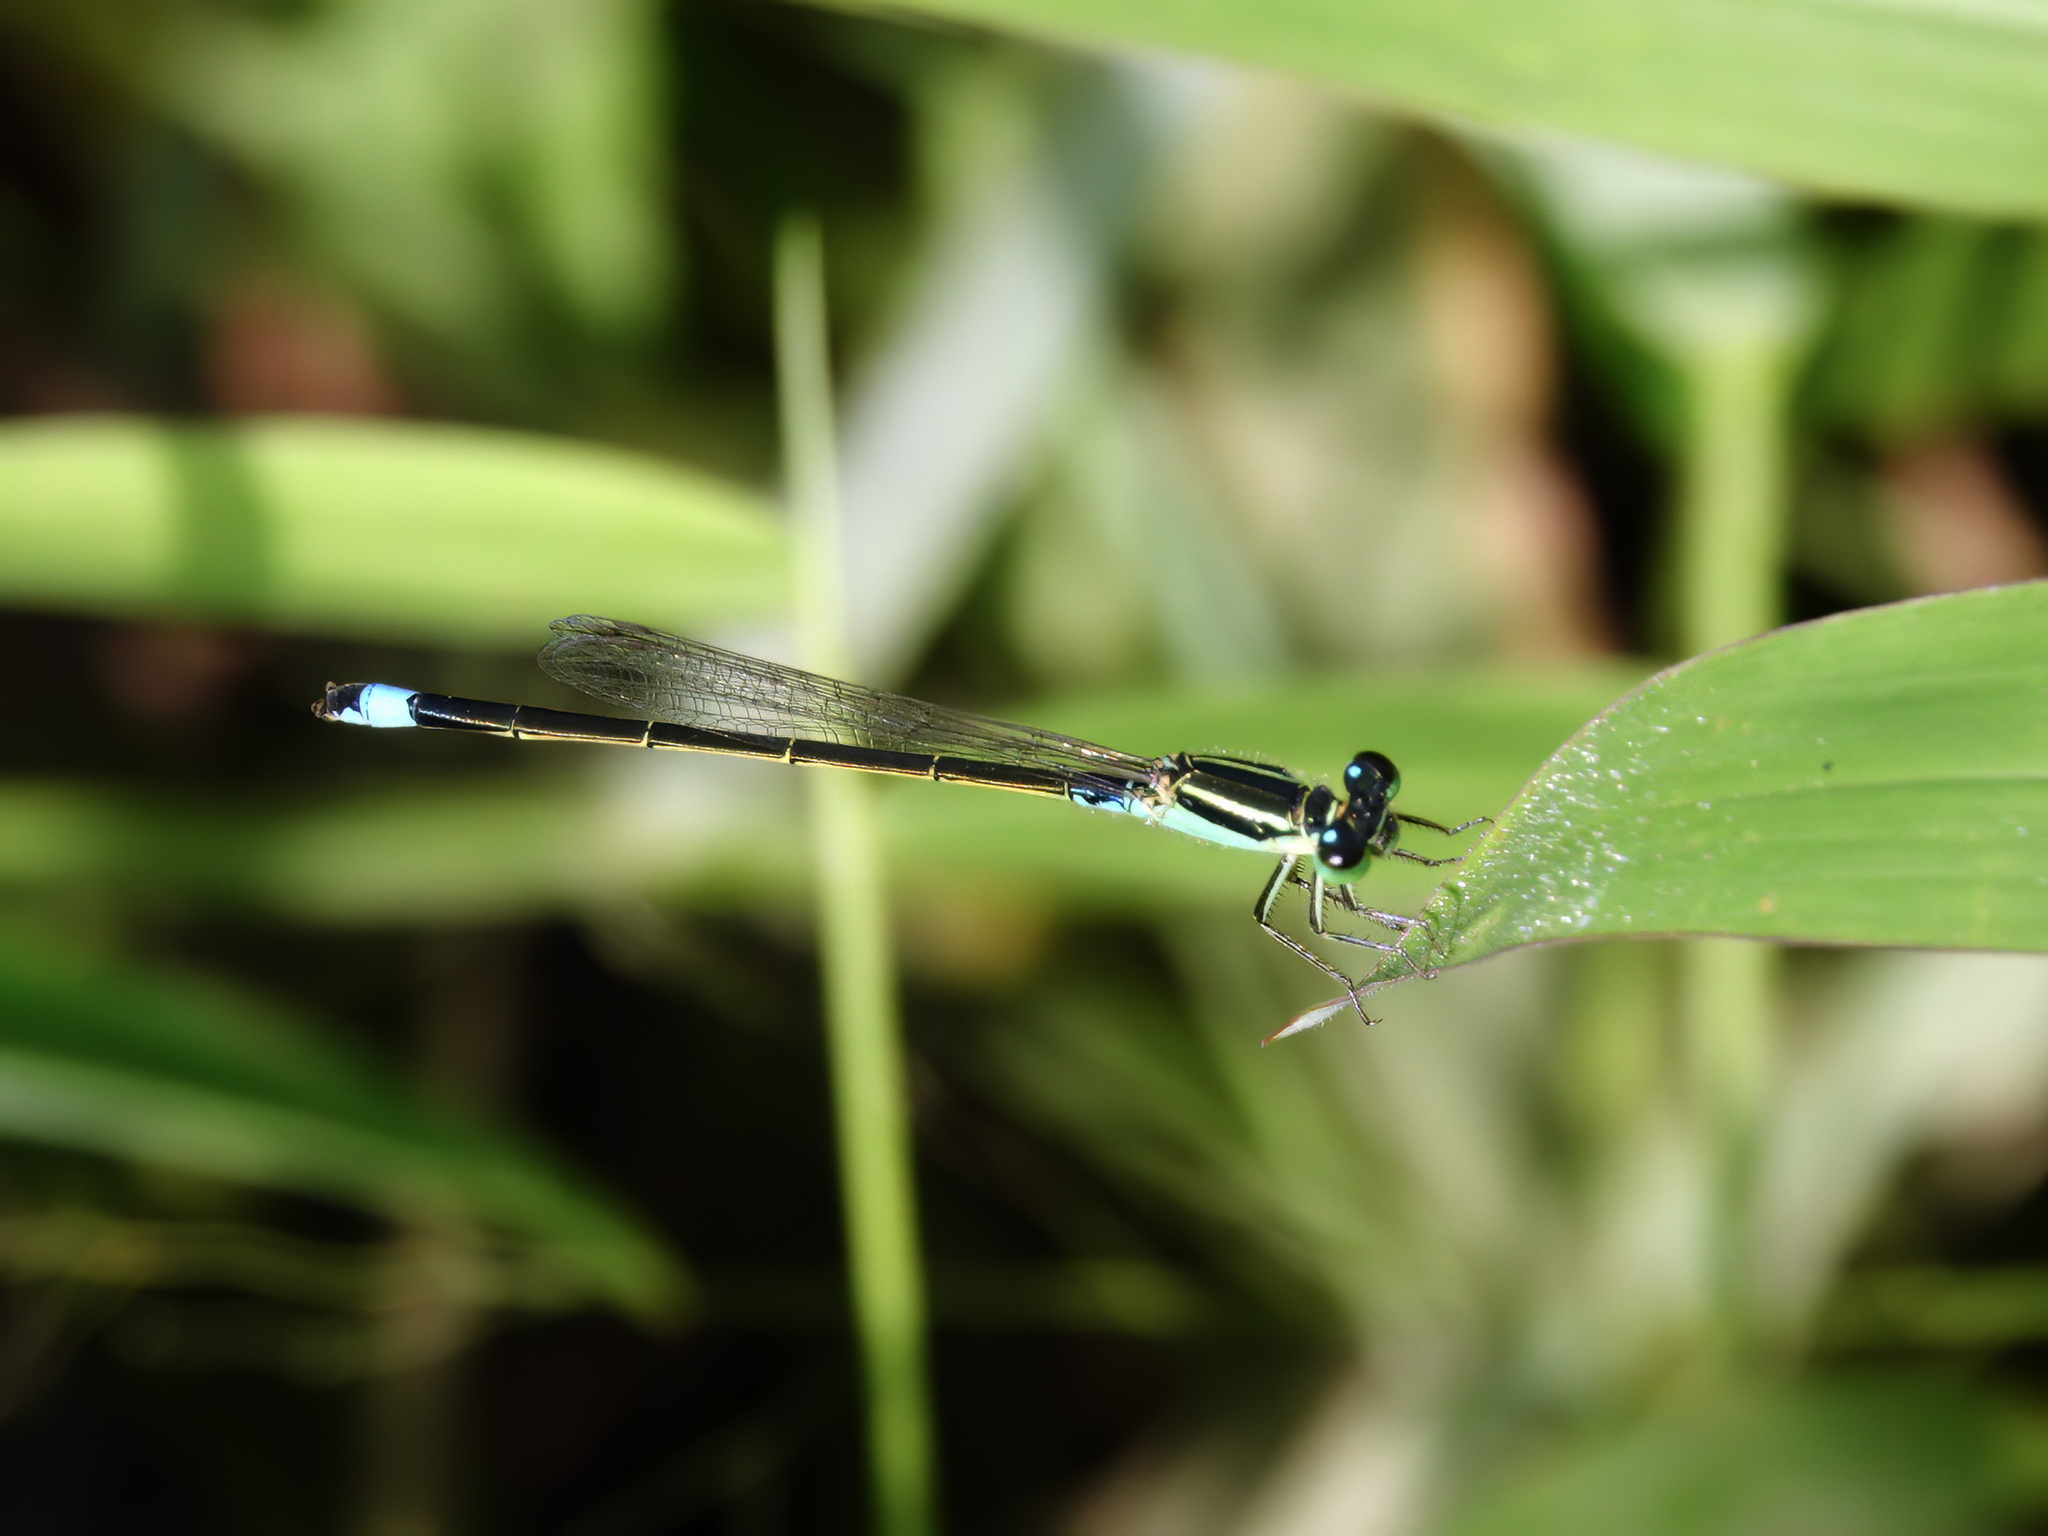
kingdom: Animalia
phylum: Arthropoda
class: Insecta
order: Odonata
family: Coenagrionidae
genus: Ischnura
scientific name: Ischnura senegalensis
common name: Tropical bluetail
